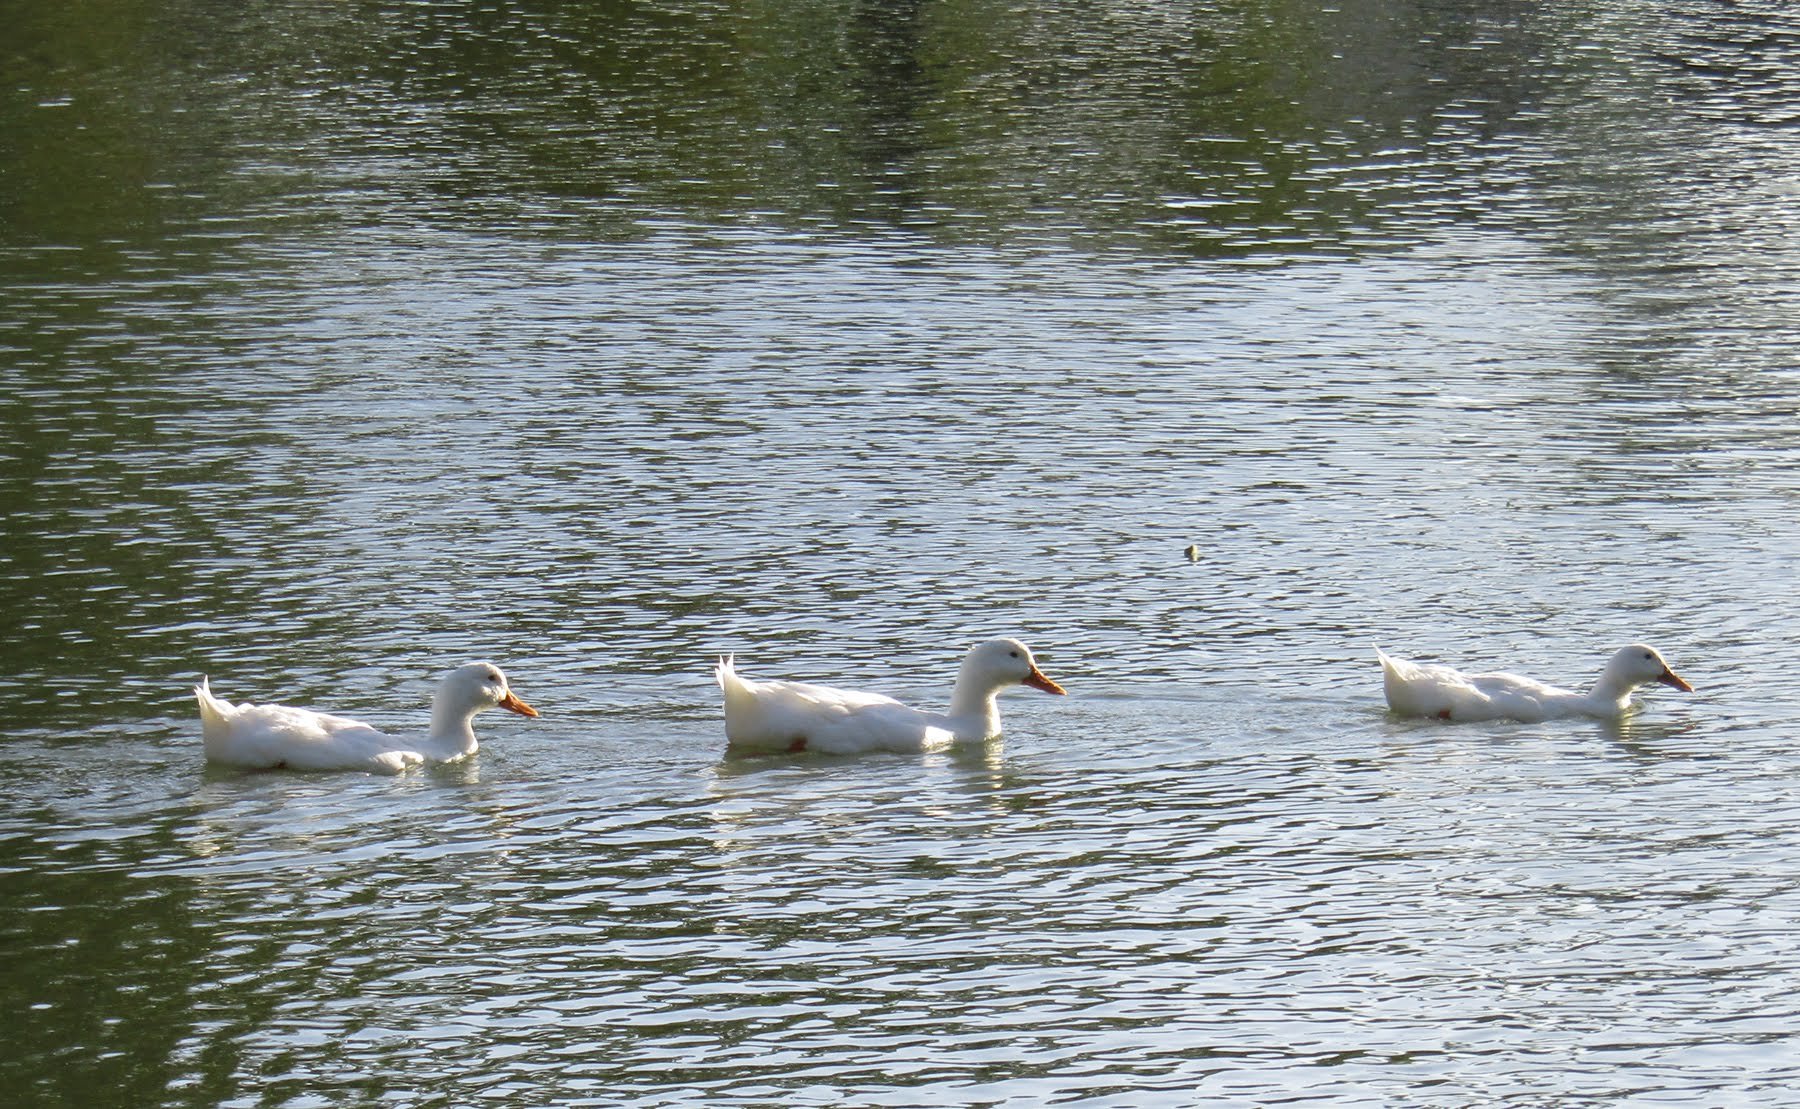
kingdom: Animalia
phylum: Chordata
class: Aves
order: Anseriformes
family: Anatidae
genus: Anas
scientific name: Anas platyrhynchos
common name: Mallard
